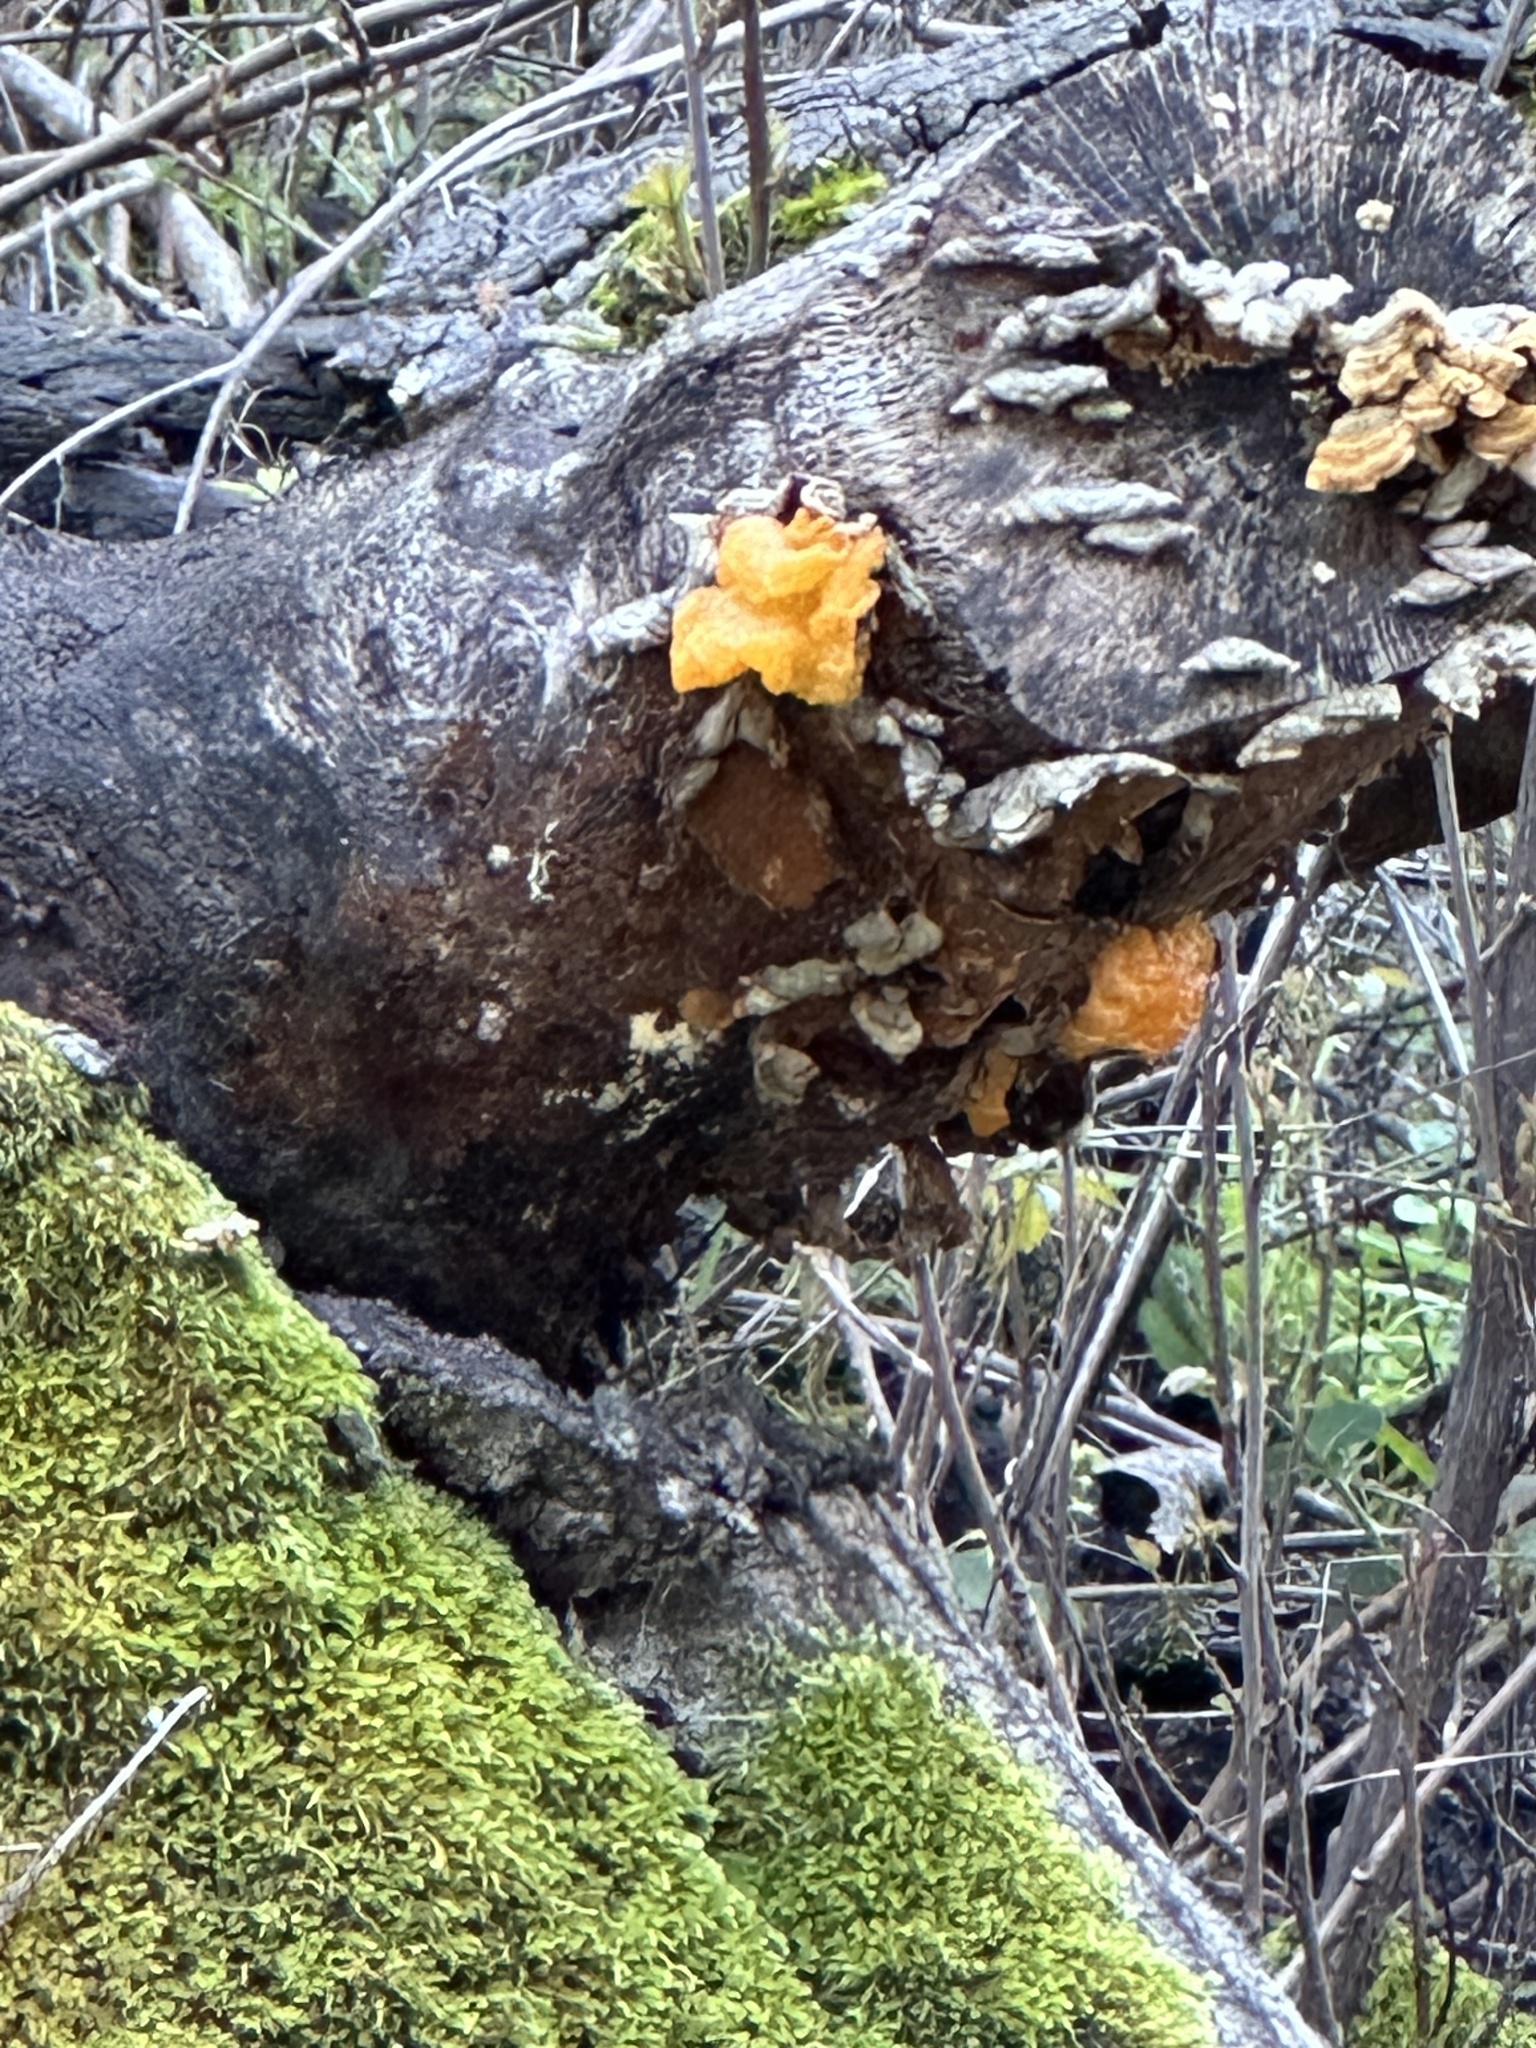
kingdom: Fungi
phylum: Basidiomycota
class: Tremellomycetes
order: Tremellales
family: Naemateliaceae
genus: Naematelia
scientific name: Naematelia aurantia
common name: Golden ear
